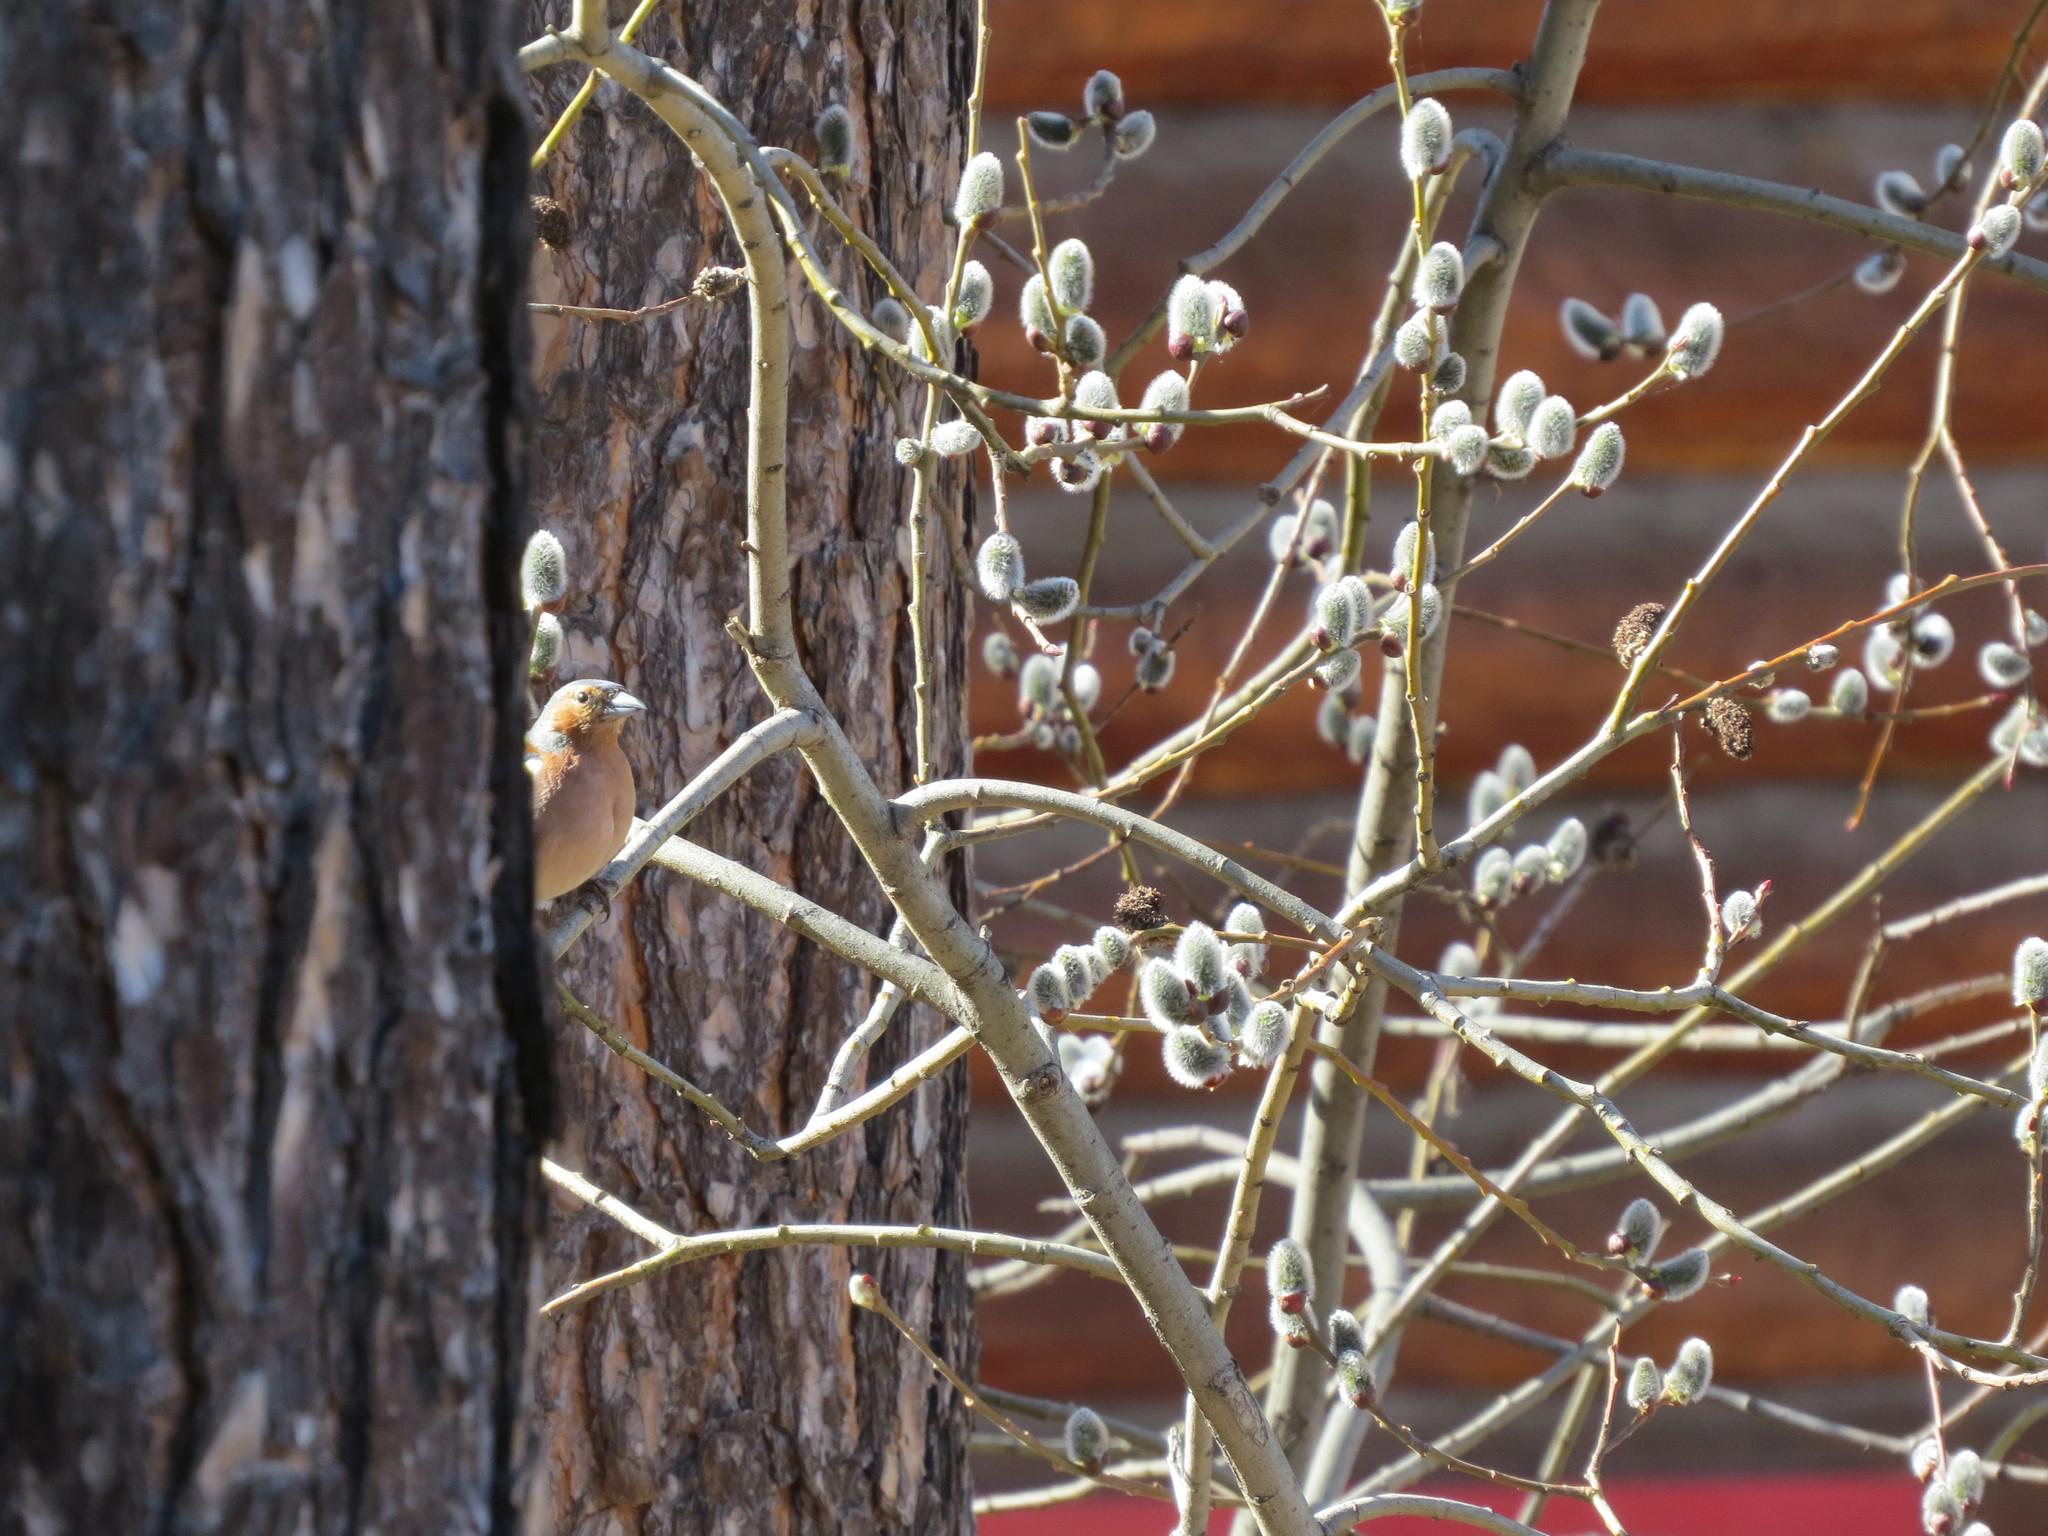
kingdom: Animalia
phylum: Chordata
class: Aves
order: Passeriformes
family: Fringillidae
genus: Fringilla
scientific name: Fringilla coelebs
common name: Common chaffinch
